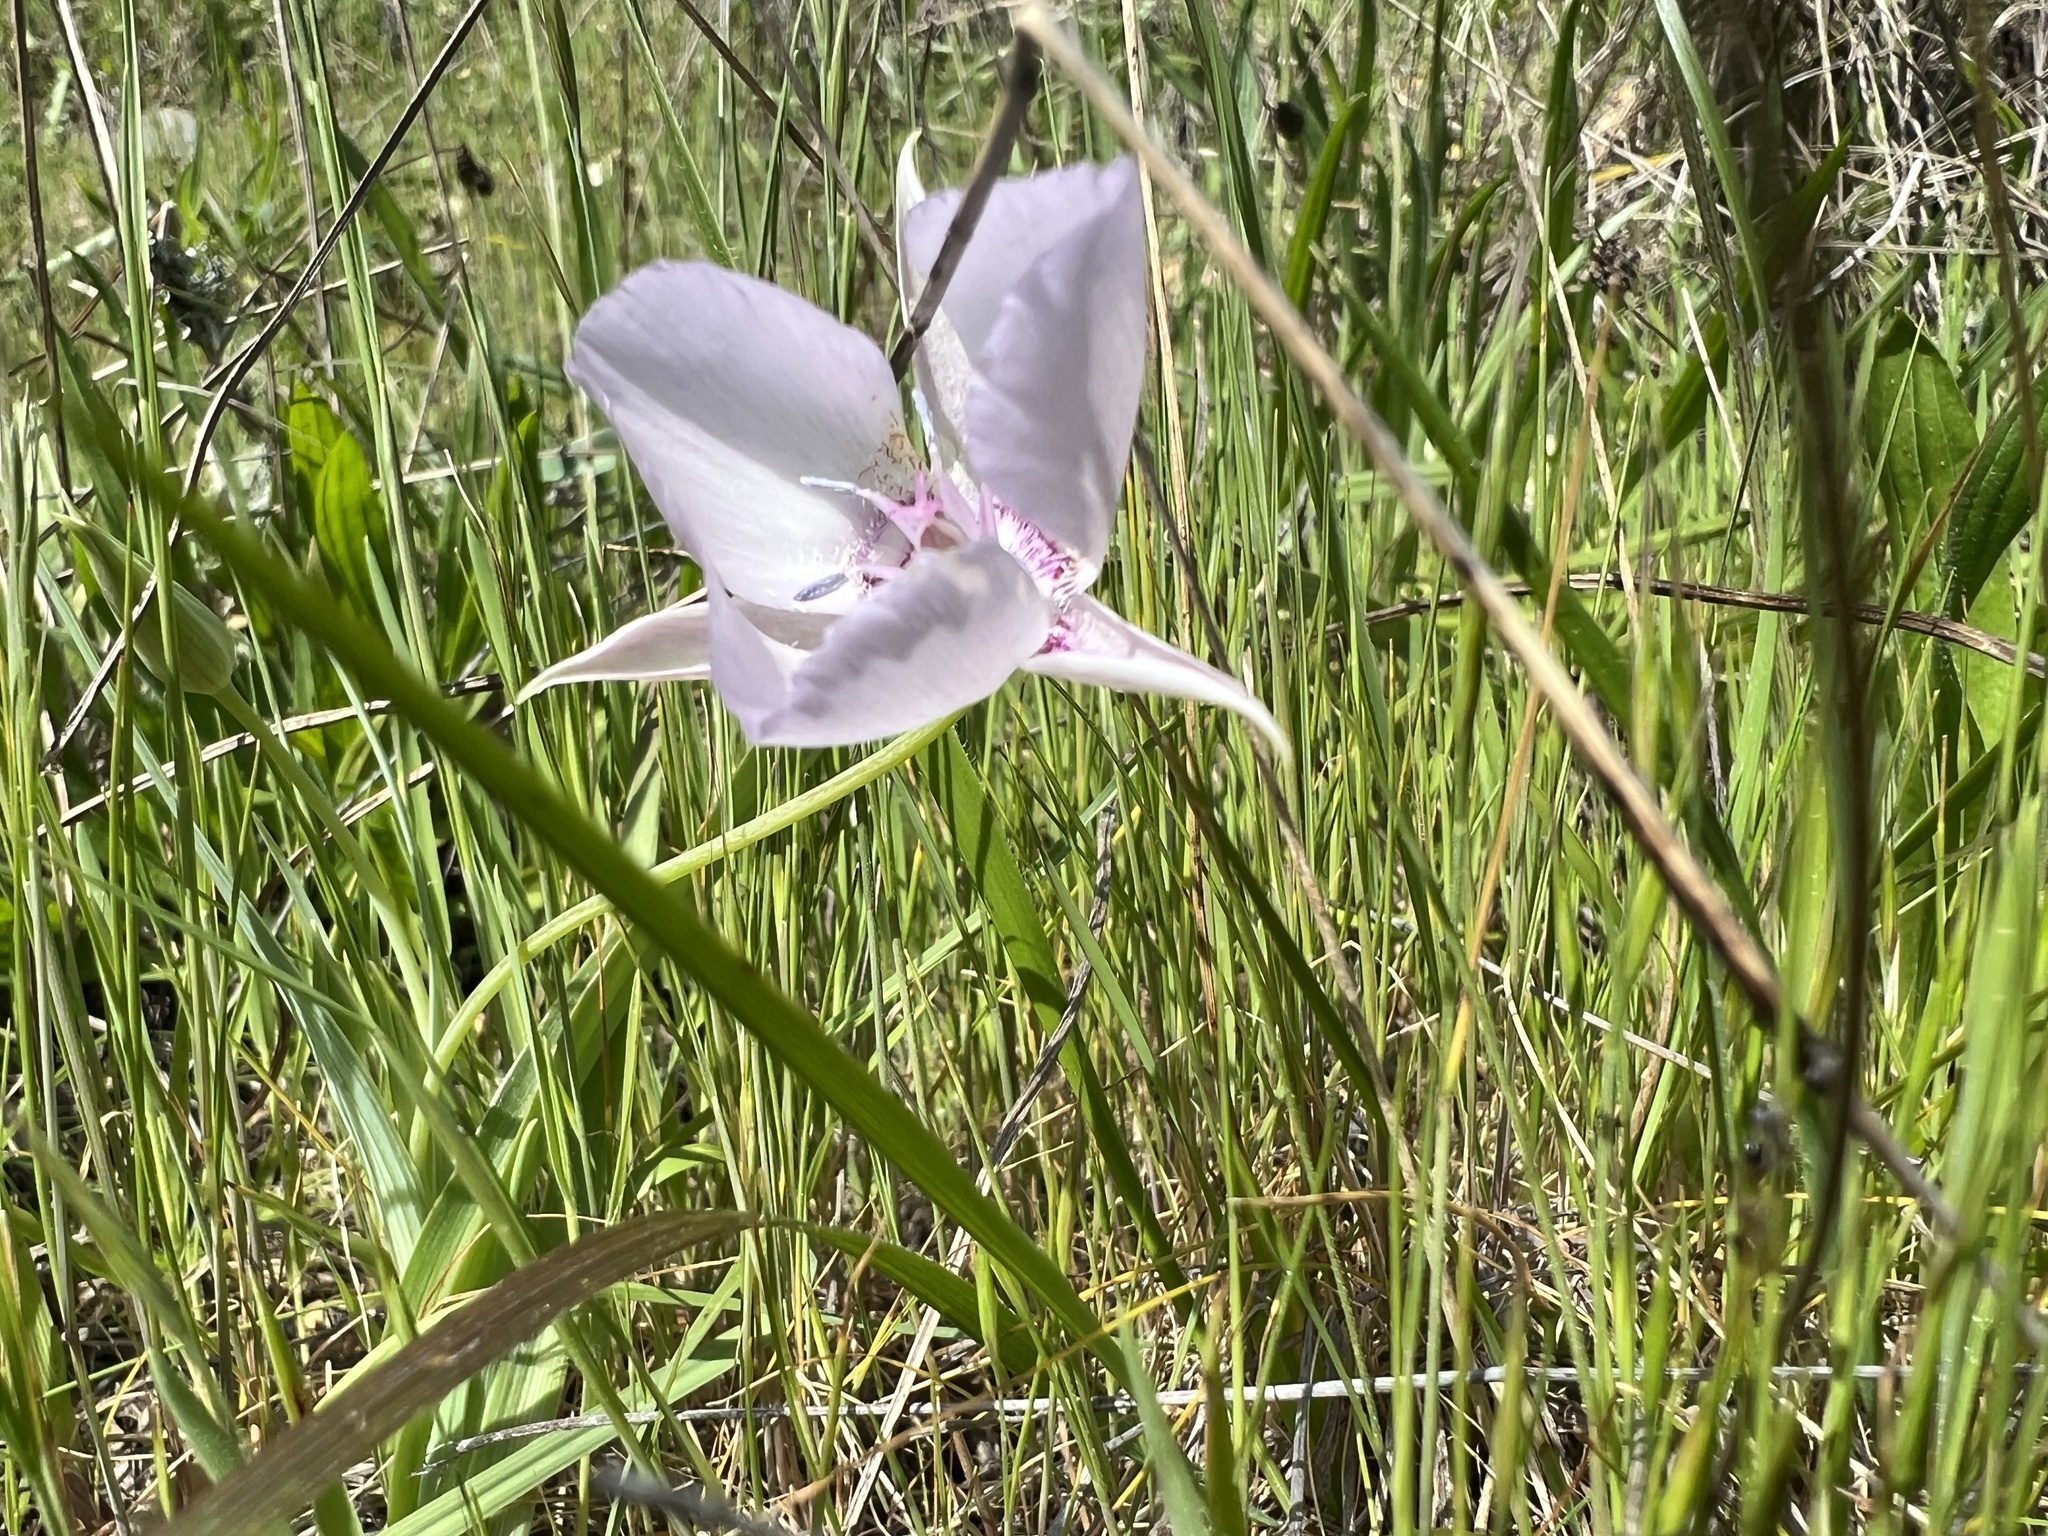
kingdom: Plantae
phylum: Tracheophyta
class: Liliopsida
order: Liliales
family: Liliaceae
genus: Calochortus
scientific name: Calochortus umbellatus
